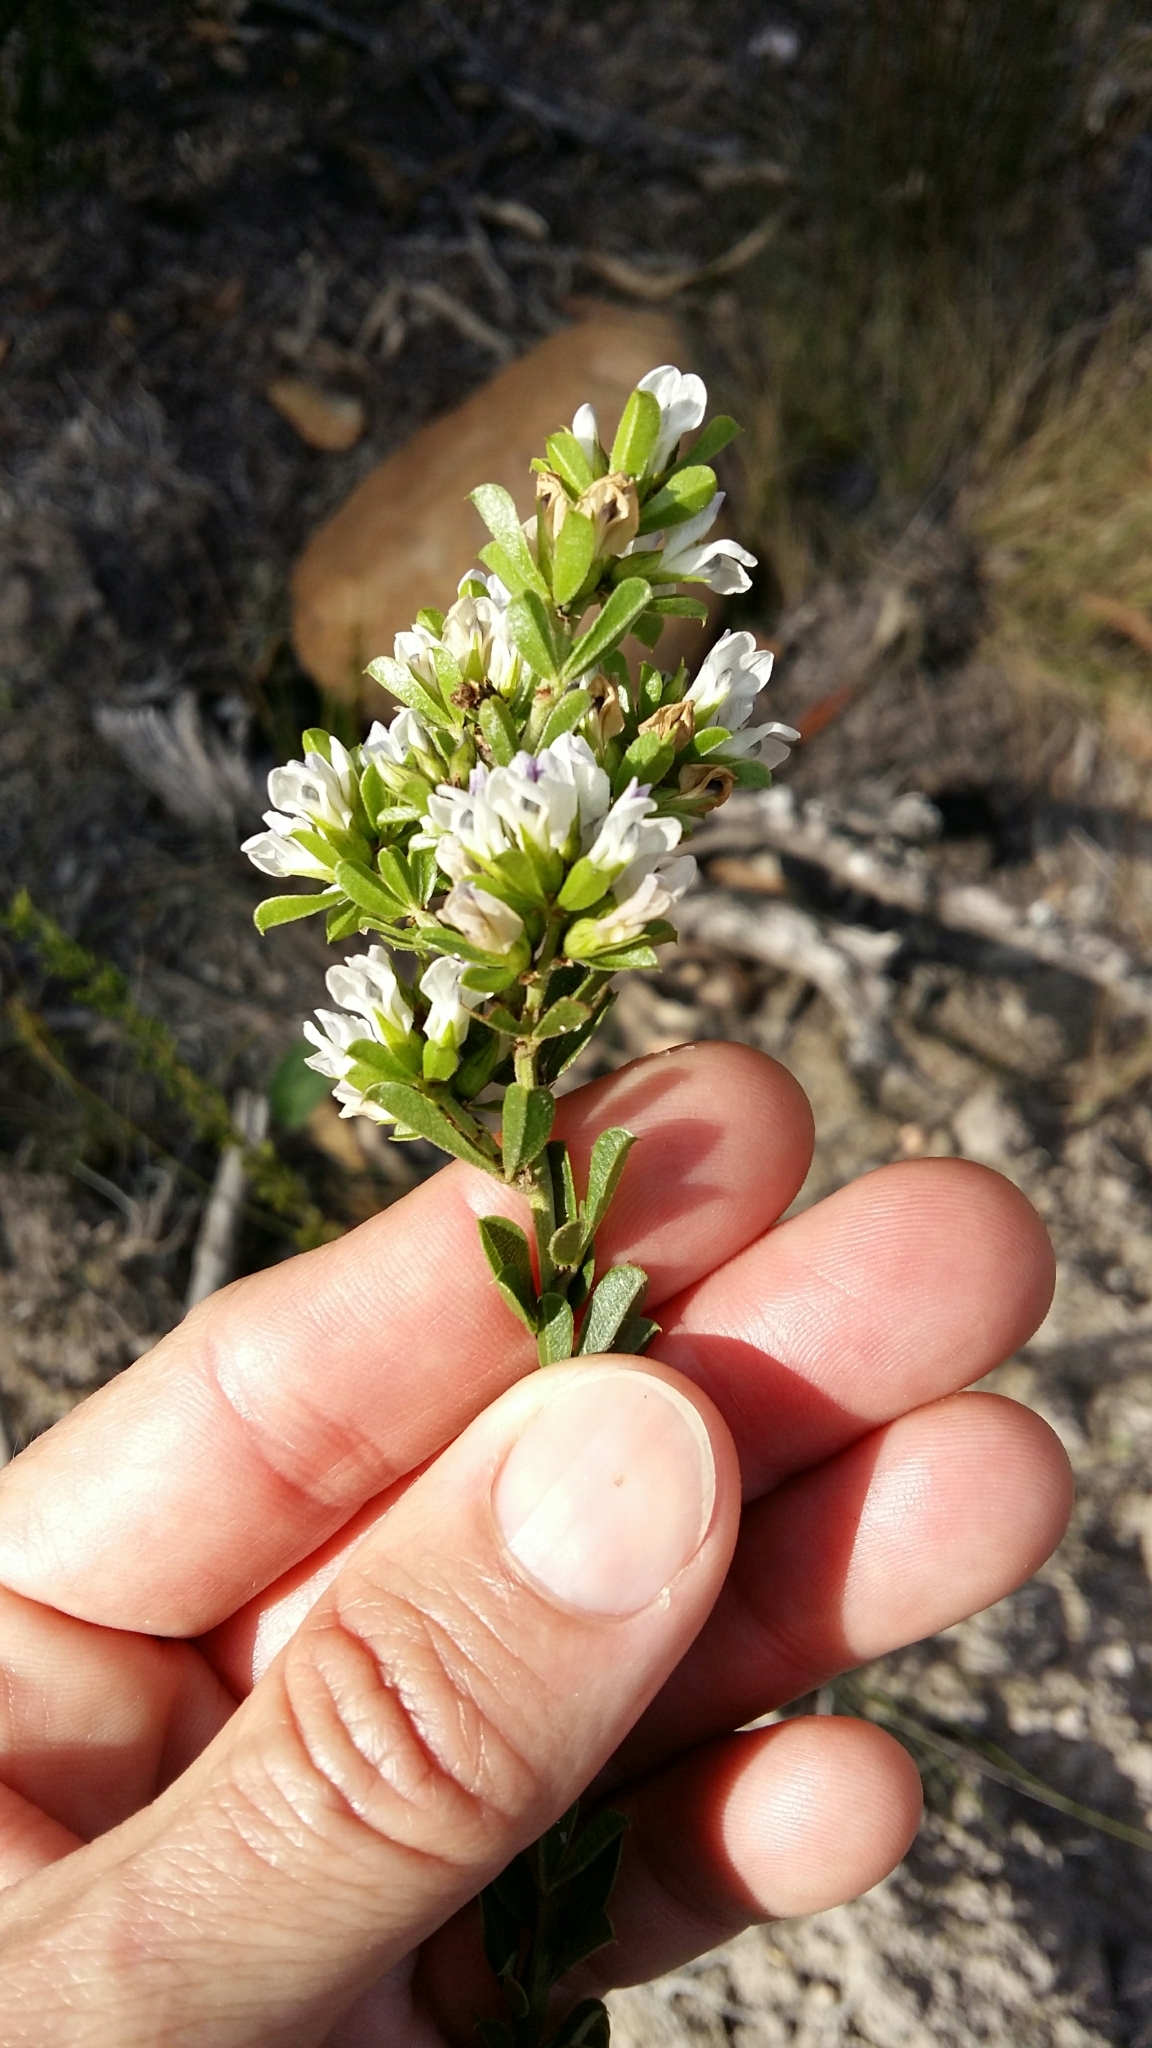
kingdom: Plantae
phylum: Tracheophyta
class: Magnoliopsida
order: Fabales
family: Fabaceae
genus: Psoralea
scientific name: Psoralea prodiens
